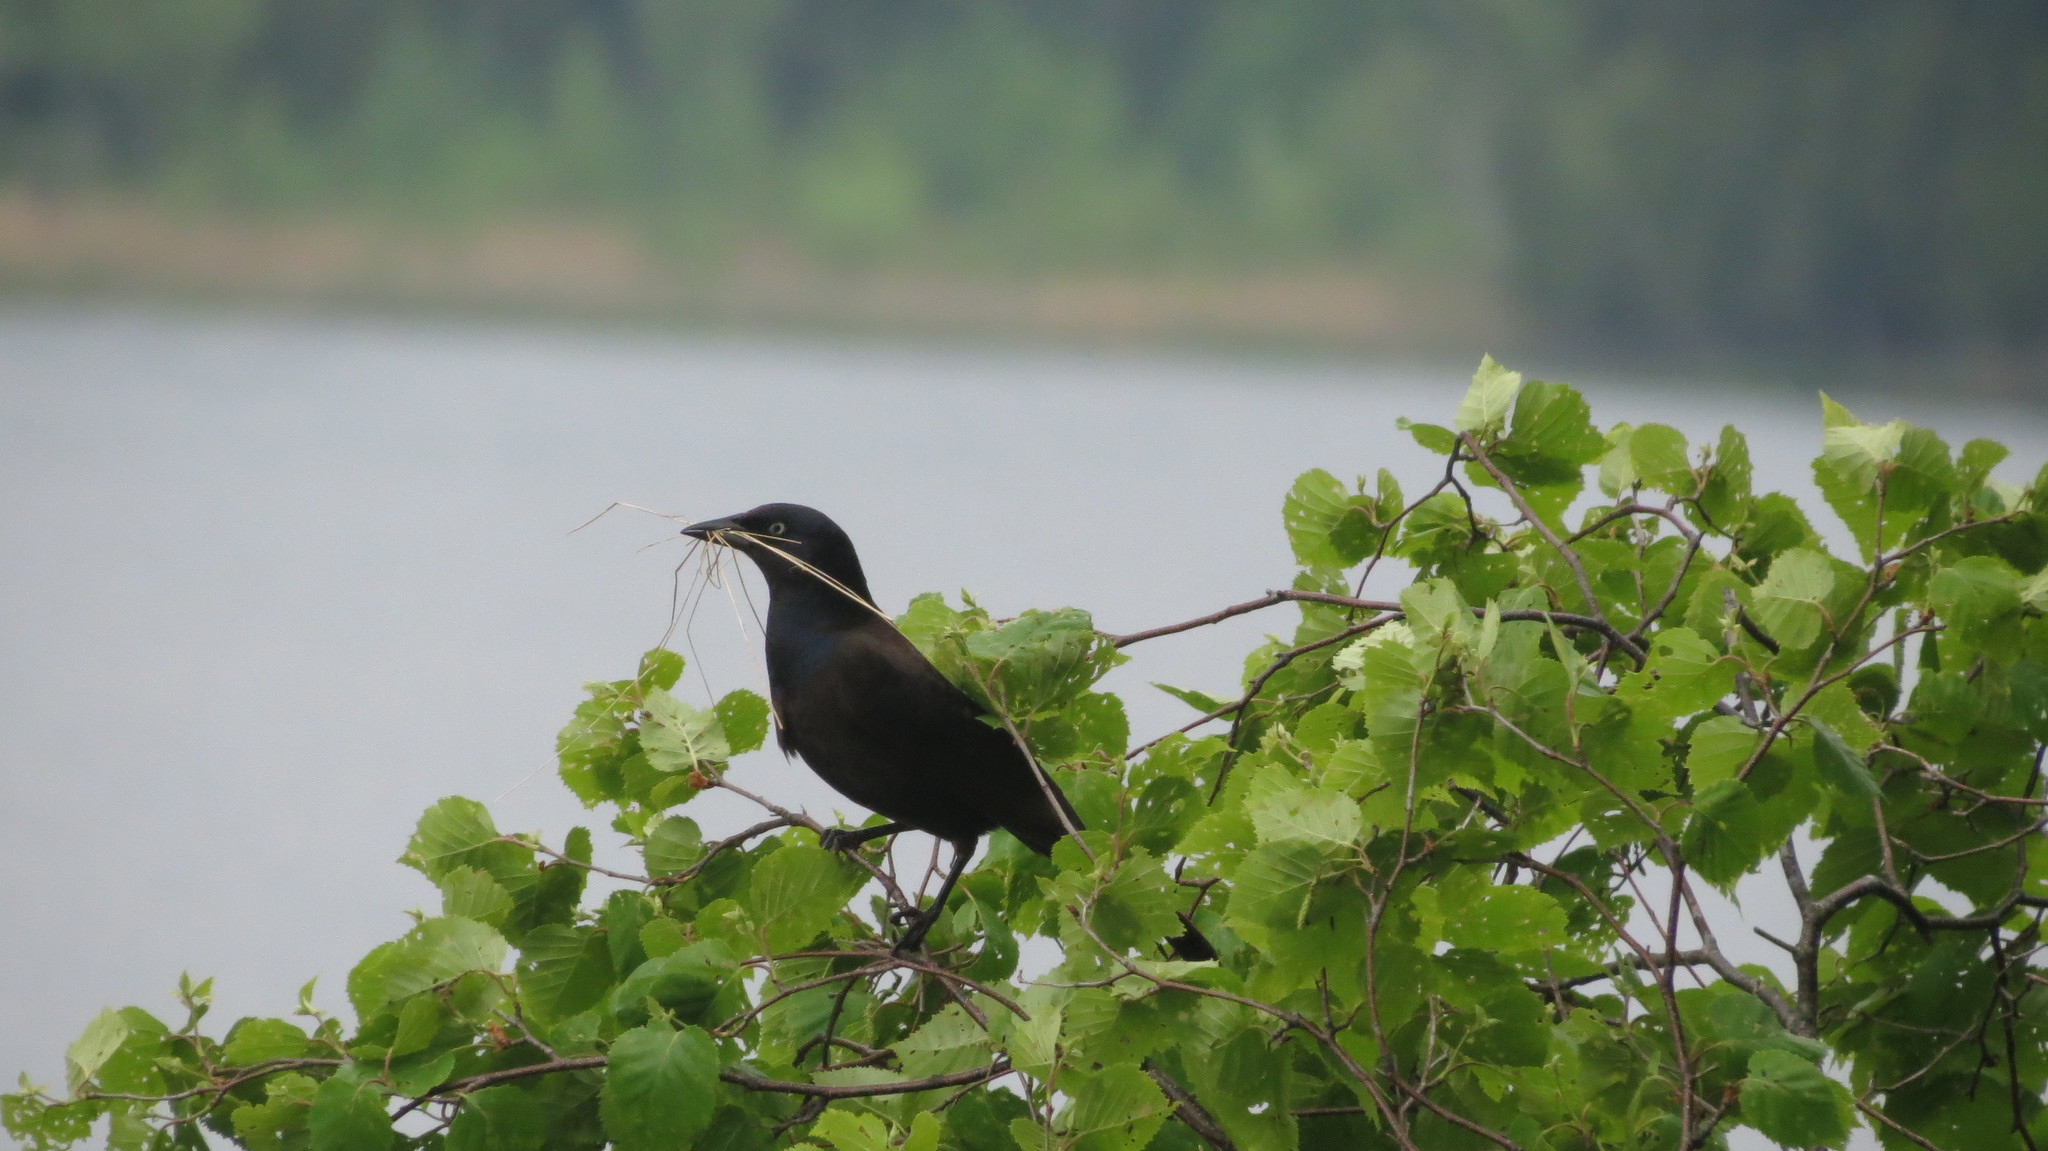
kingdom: Animalia
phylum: Chordata
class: Aves
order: Passeriformes
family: Icteridae
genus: Quiscalus
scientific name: Quiscalus quiscula
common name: Common grackle
